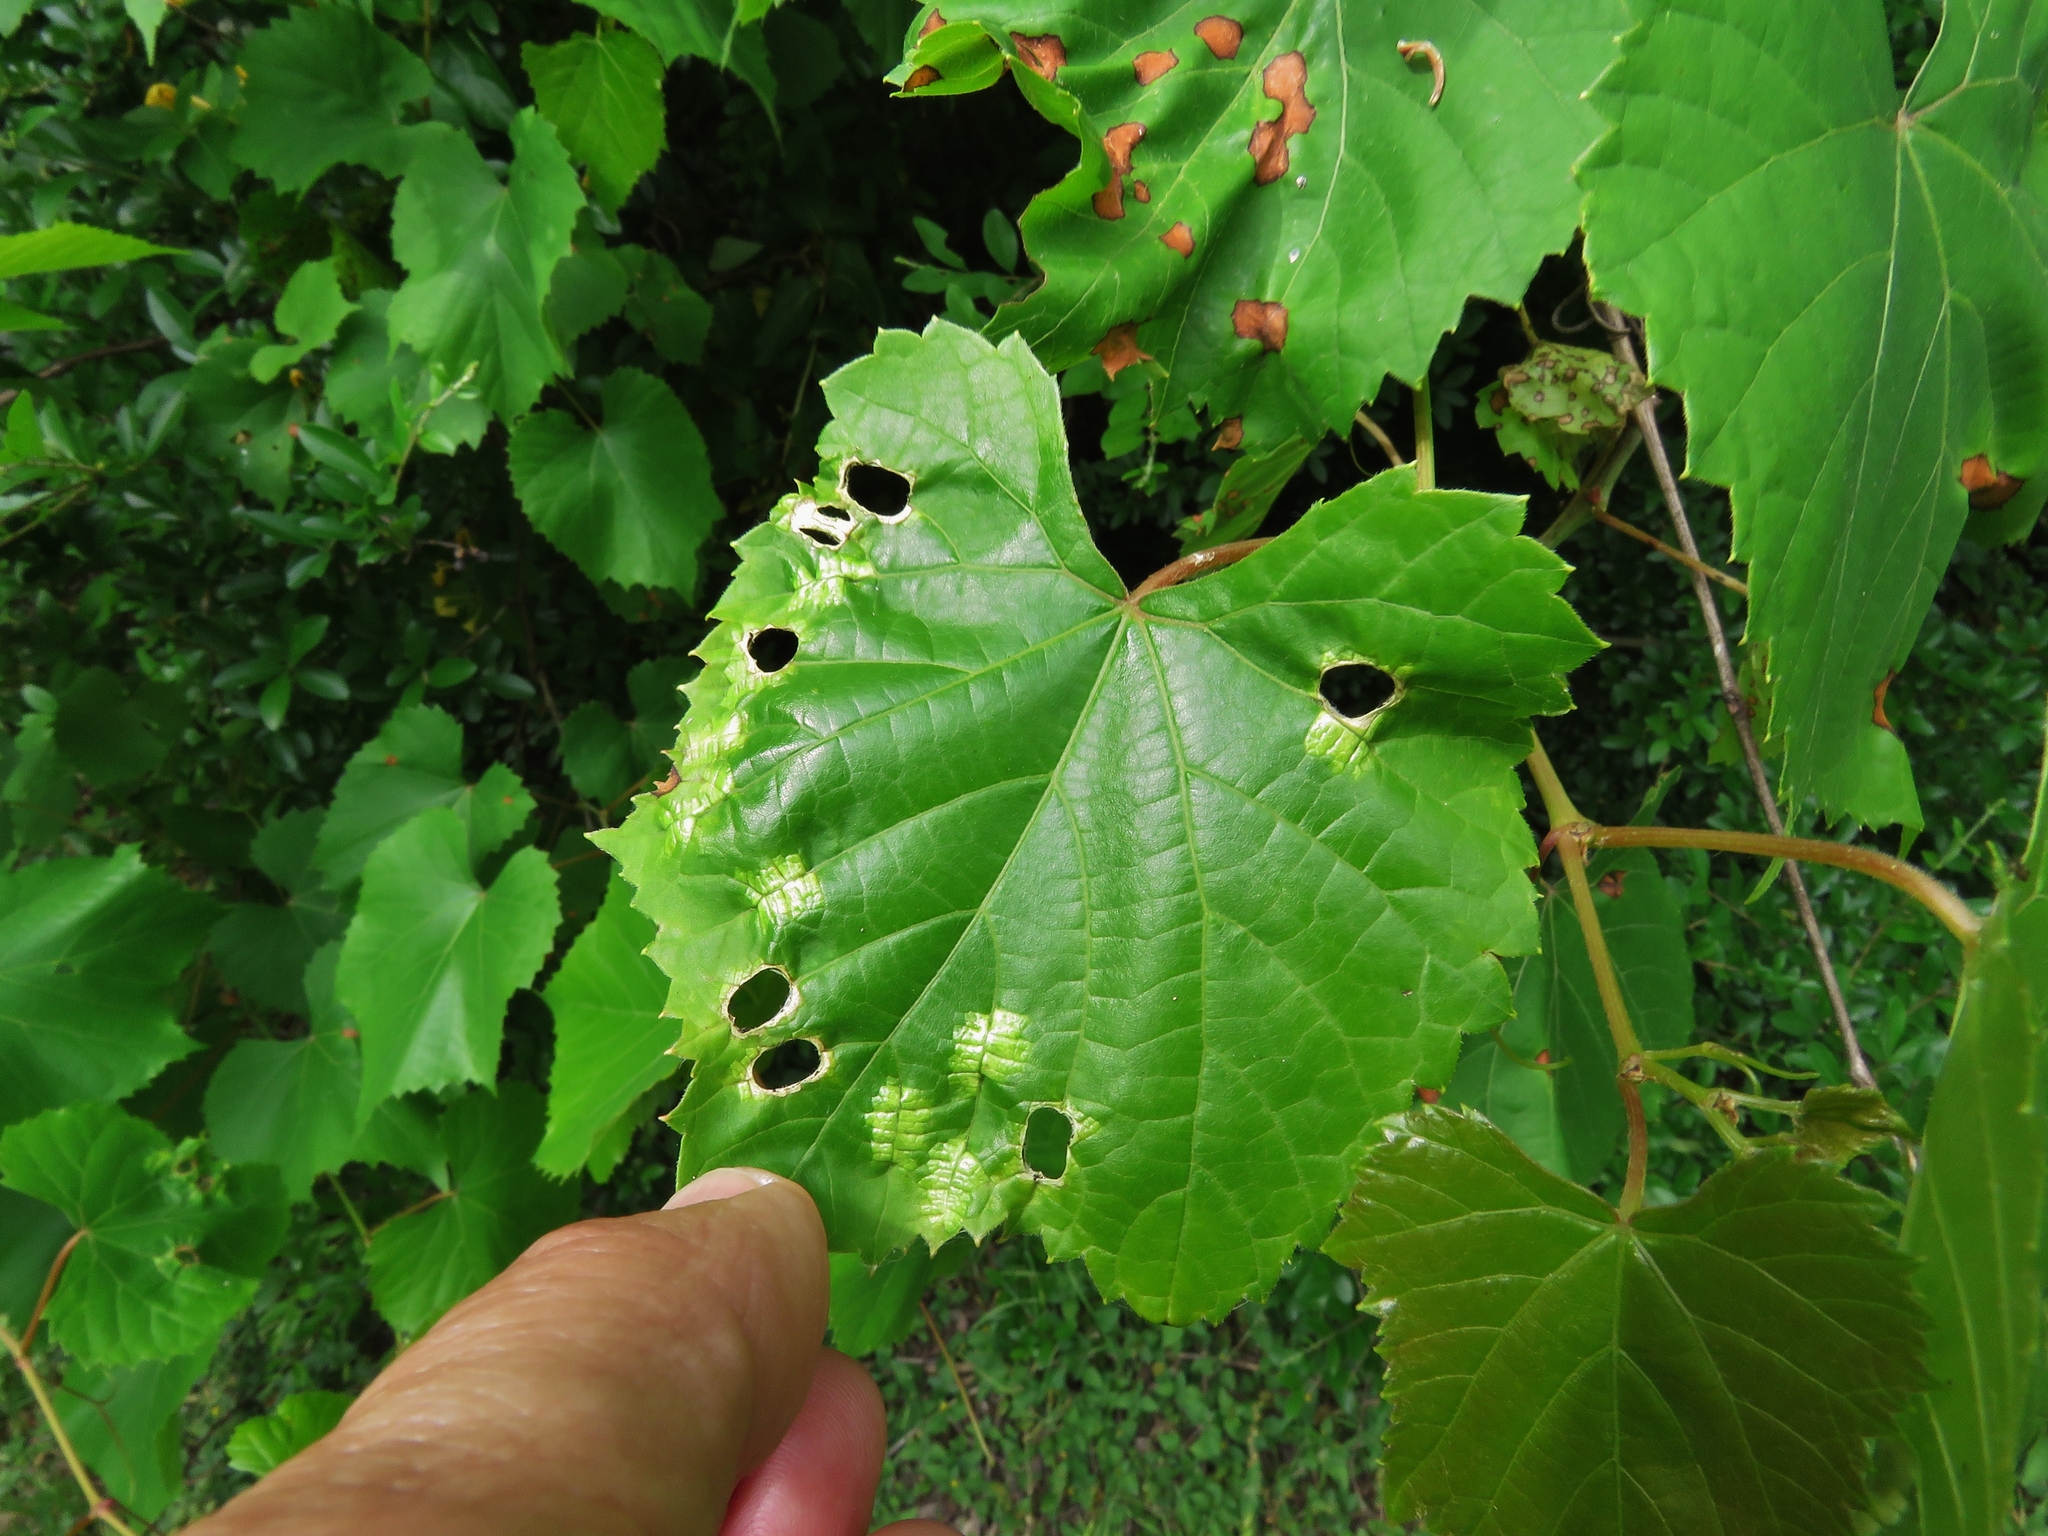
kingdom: Animalia
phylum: Arthropoda
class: Insecta
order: Lepidoptera
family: Heliozelidae
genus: Heliozela
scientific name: Heliozela aesella
